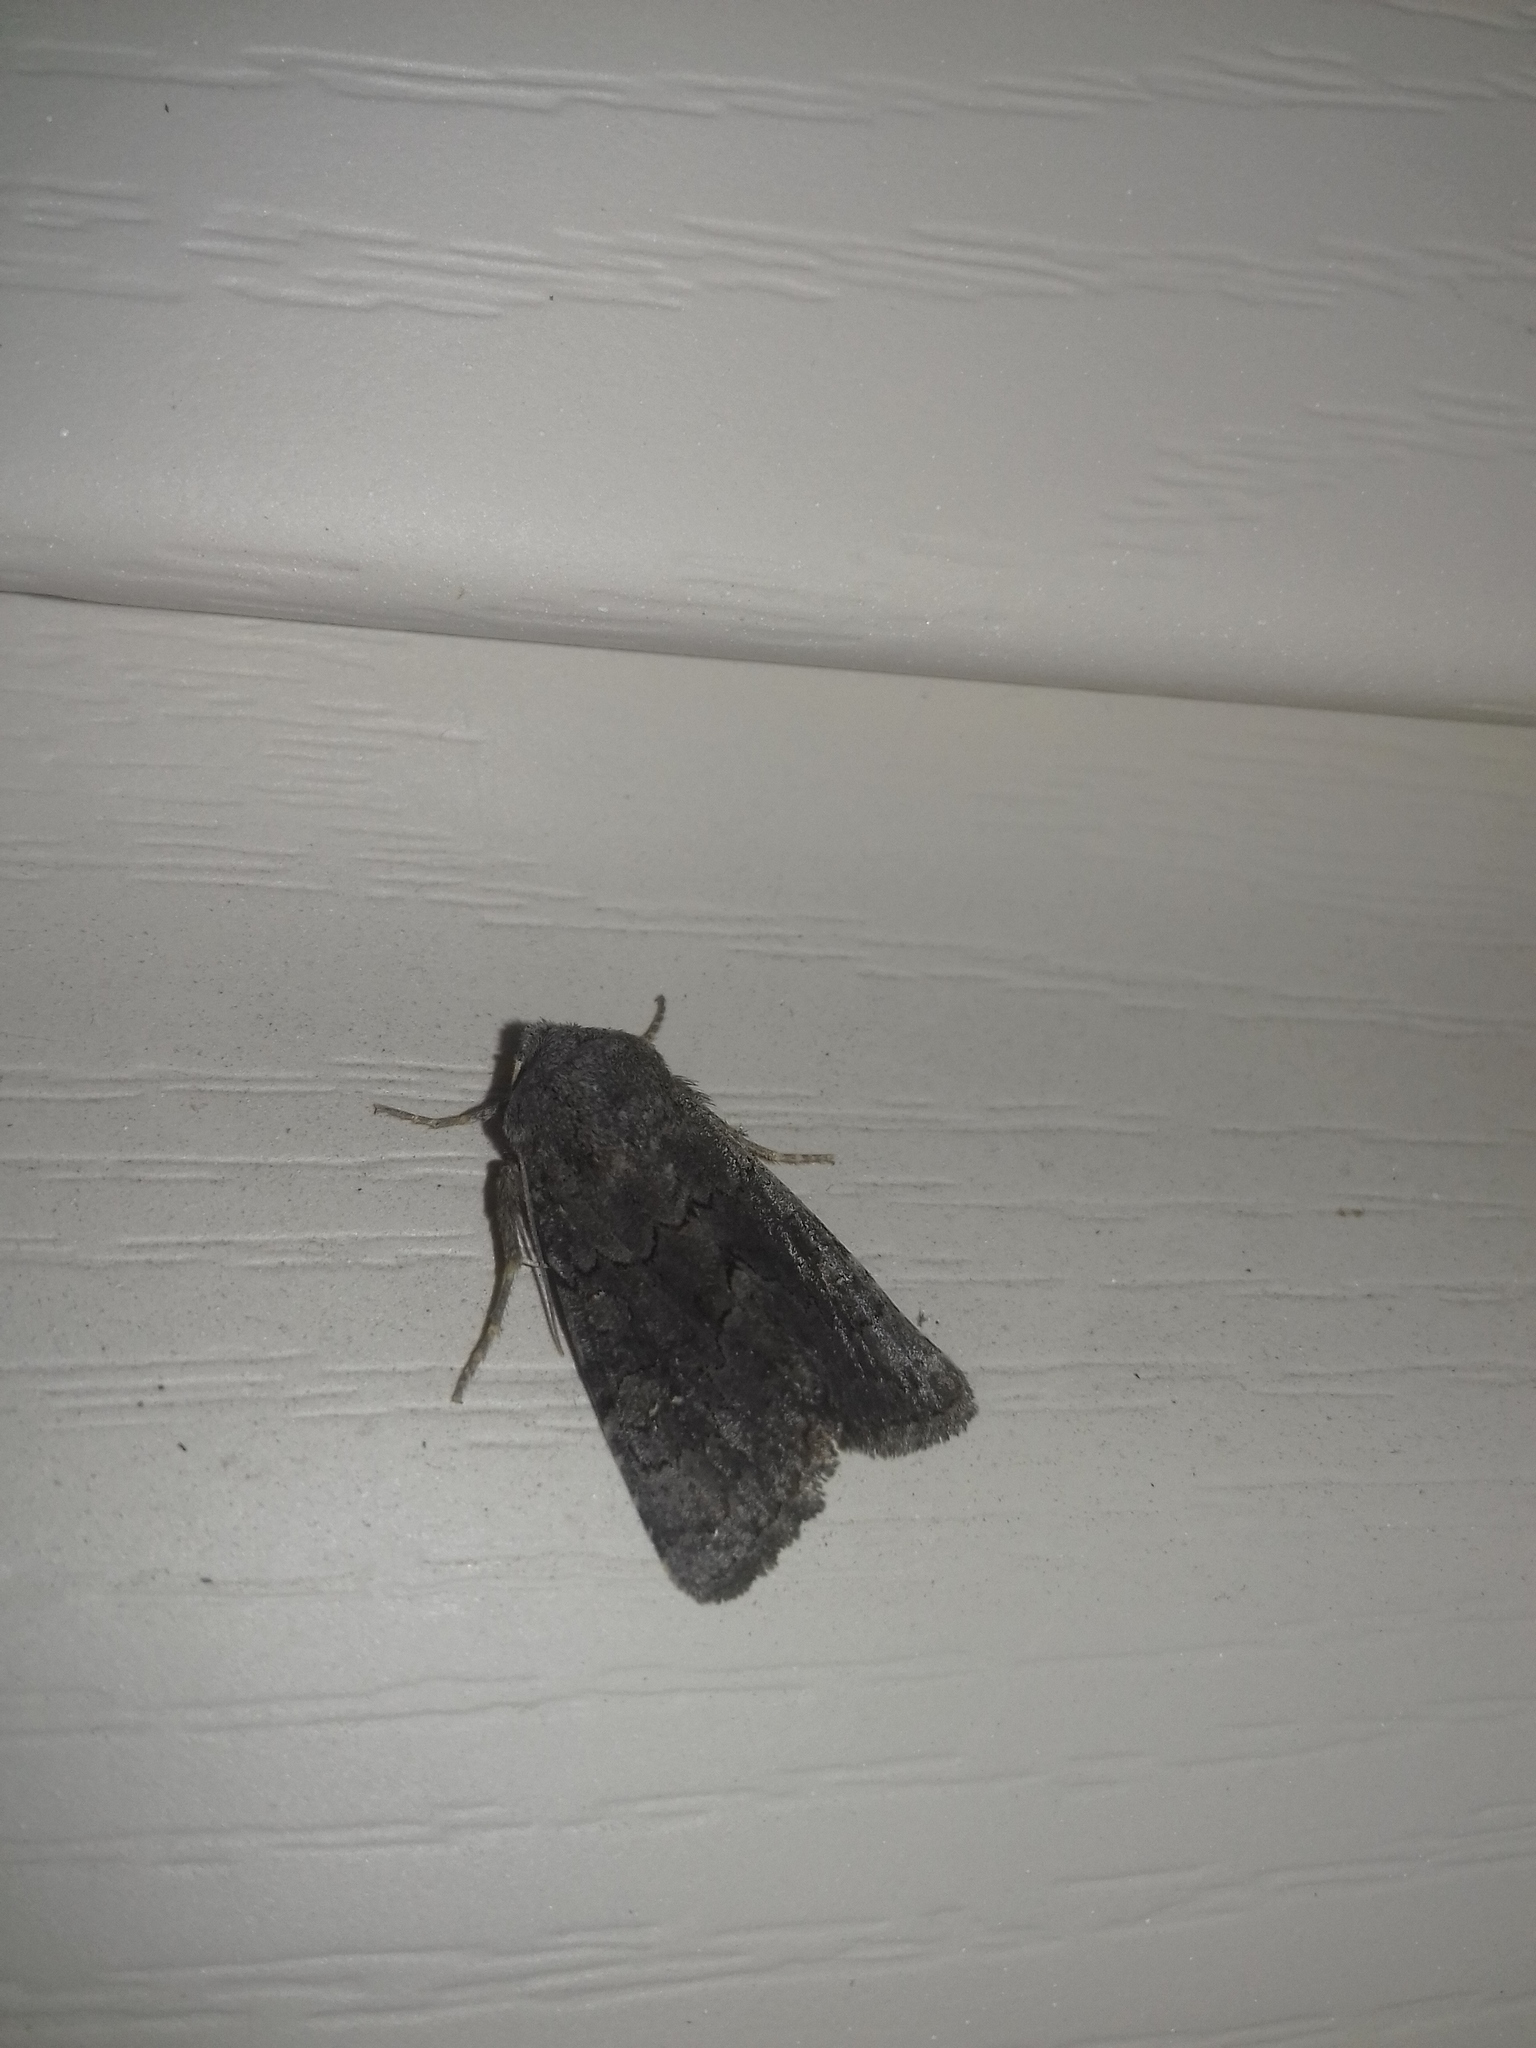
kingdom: Animalia
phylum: Arthropoda
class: Insecta
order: Lepidoptera
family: Noctuidae
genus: Aporophyla
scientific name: Aporophyla nigra
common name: Black rustic
